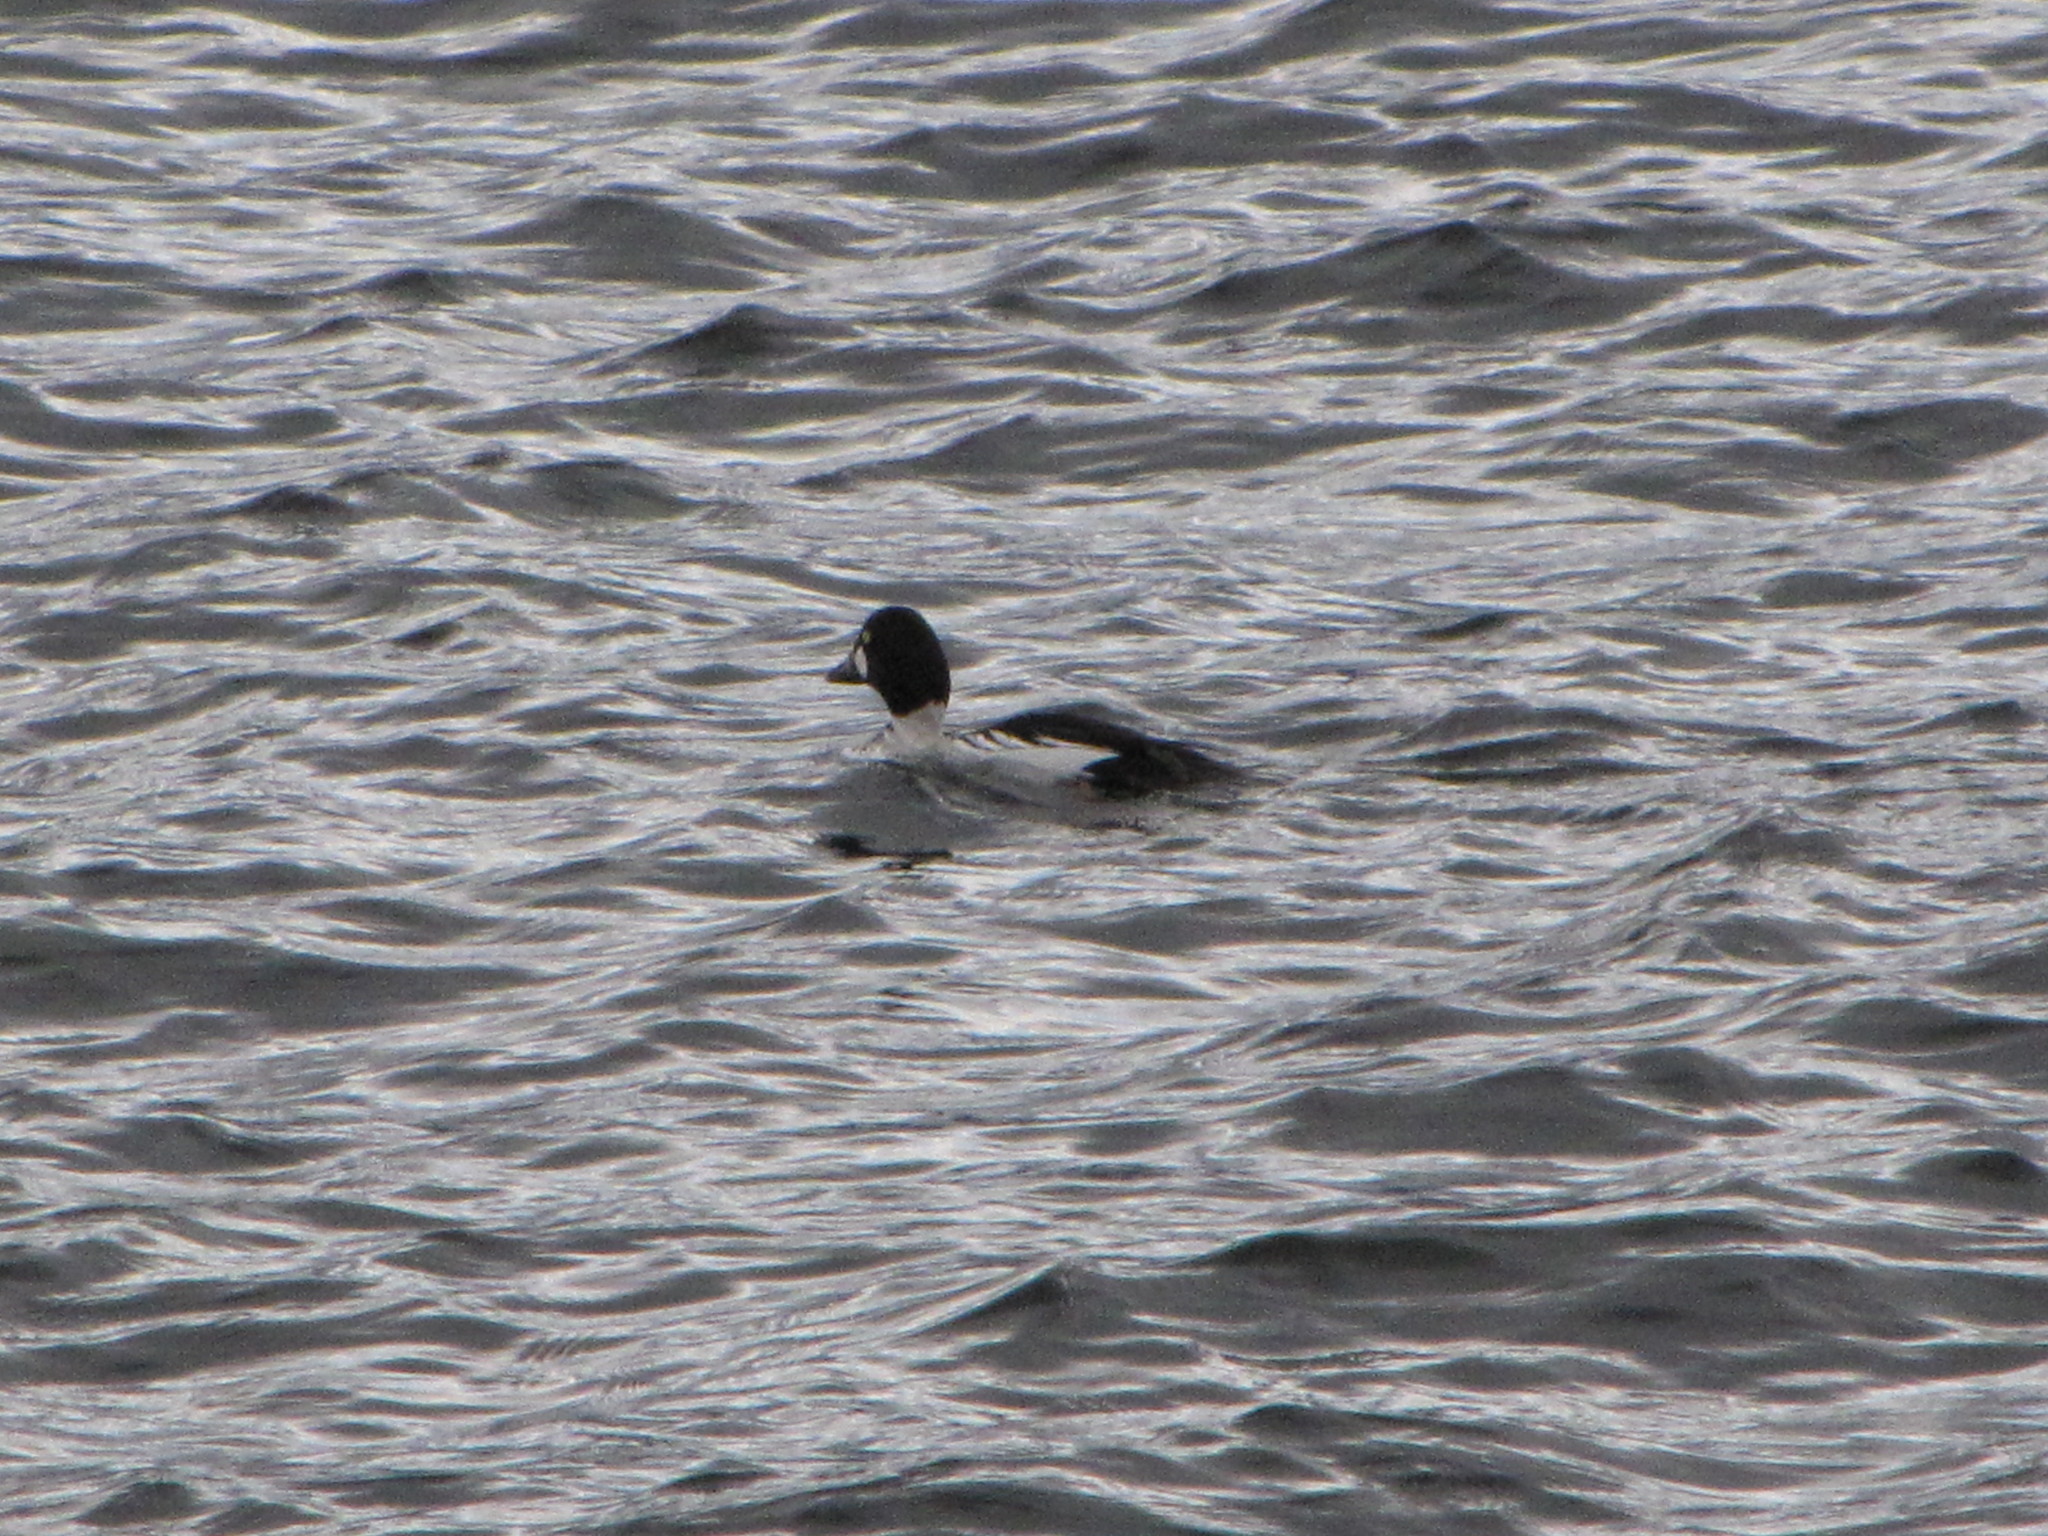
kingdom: Animalia
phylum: Chordata
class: Aves
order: Anseriformes
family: Anatidae
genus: Bucephala
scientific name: Bucephala clangula
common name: Common goldeneye
